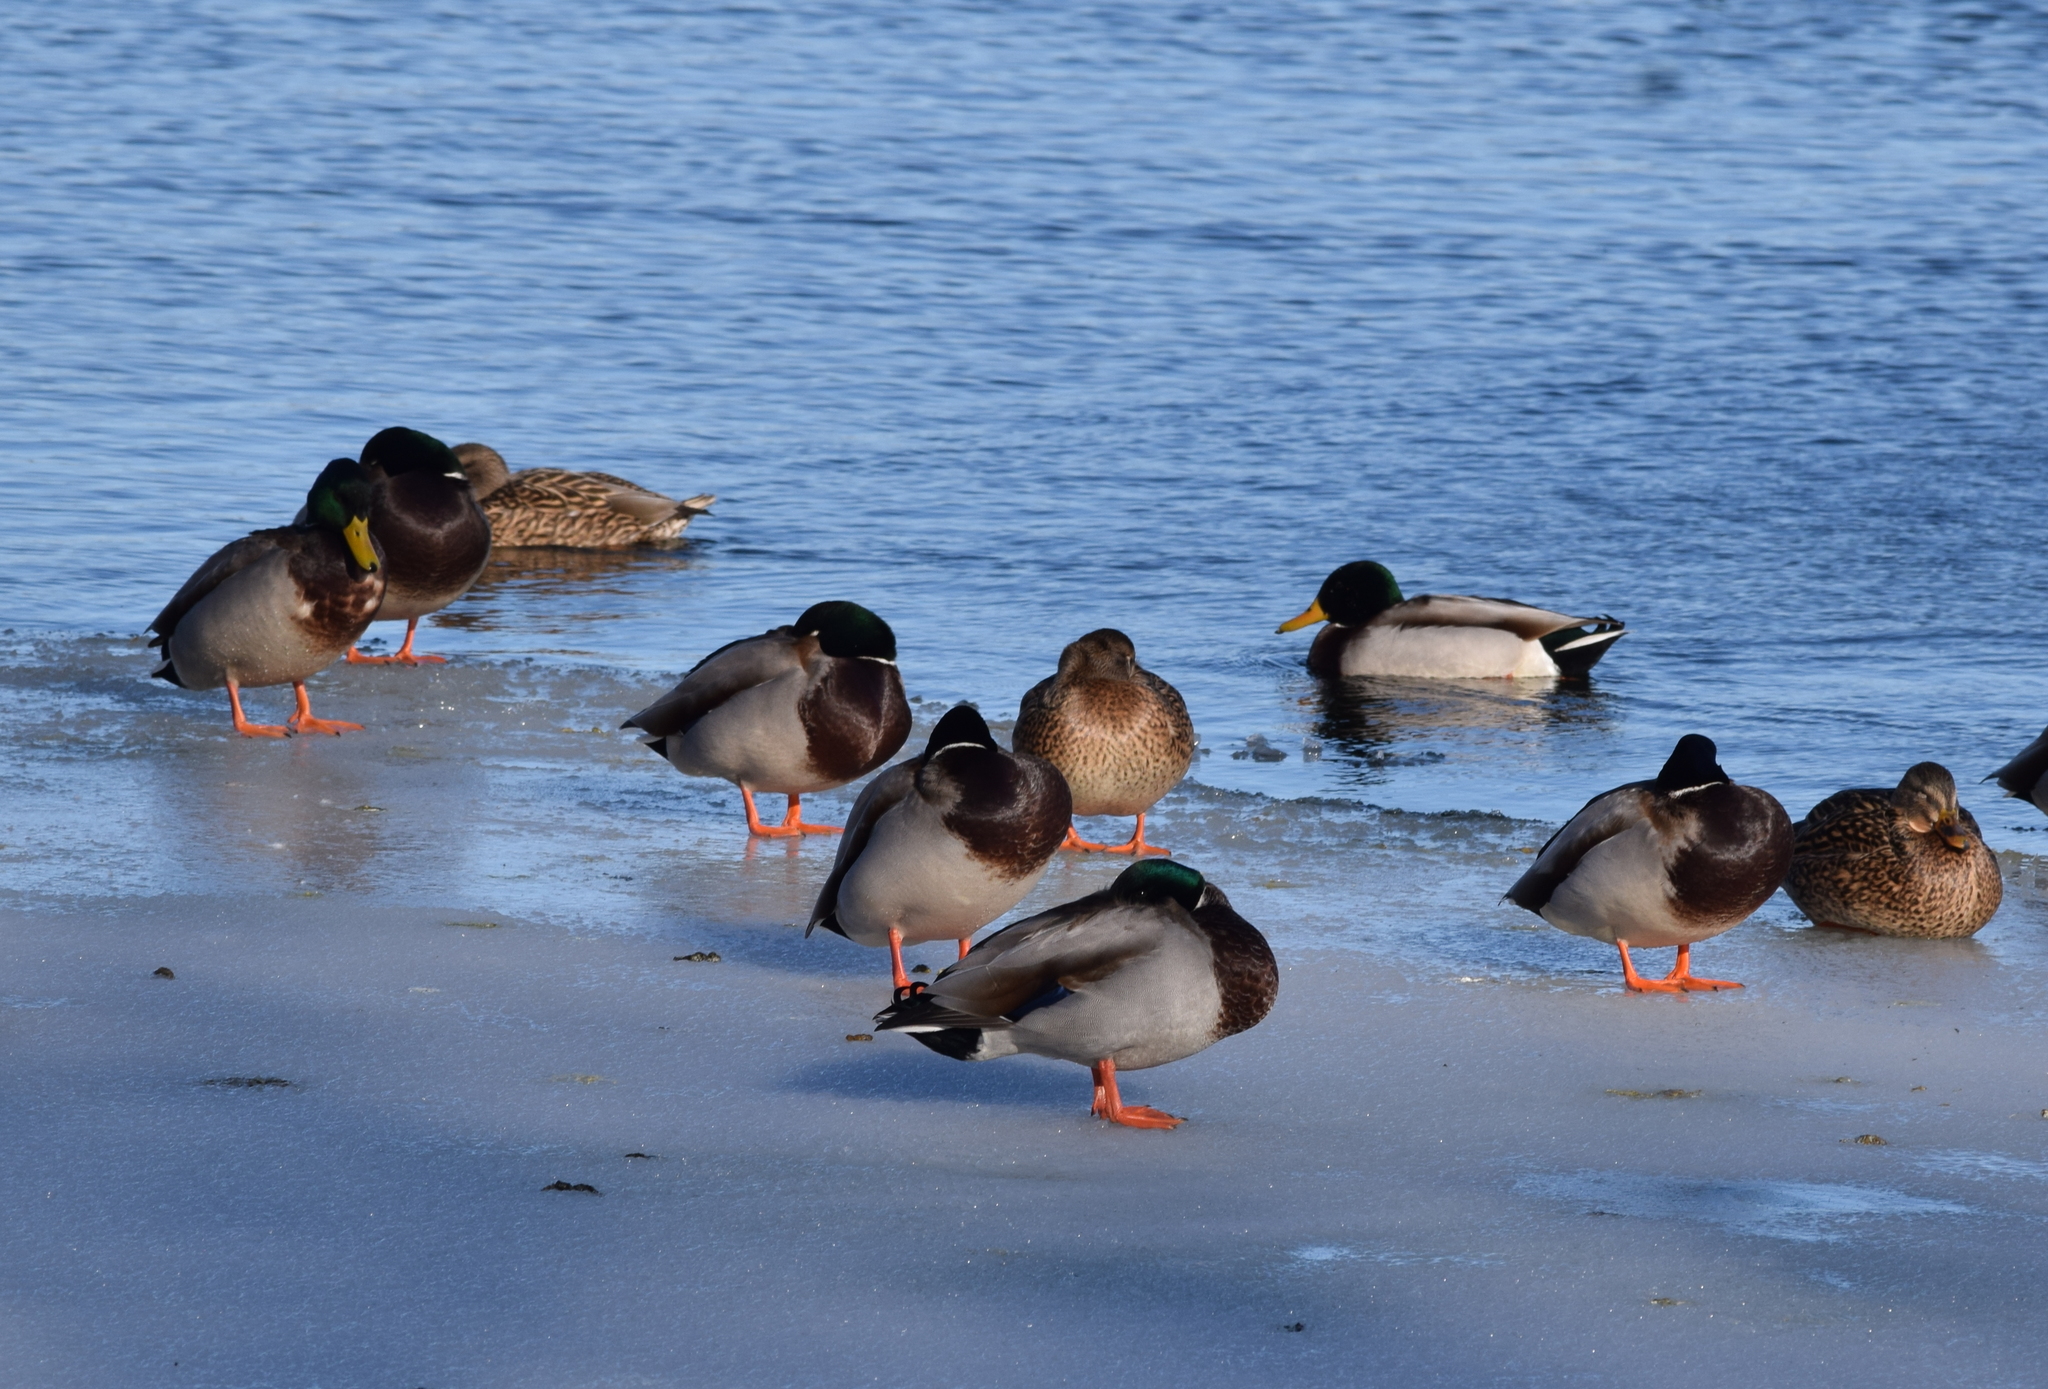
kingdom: Animalia
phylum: Chordata
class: Aves
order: Anseriformes
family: Anatidae
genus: Anas
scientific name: Anas platyrhynchos
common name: Mallard
